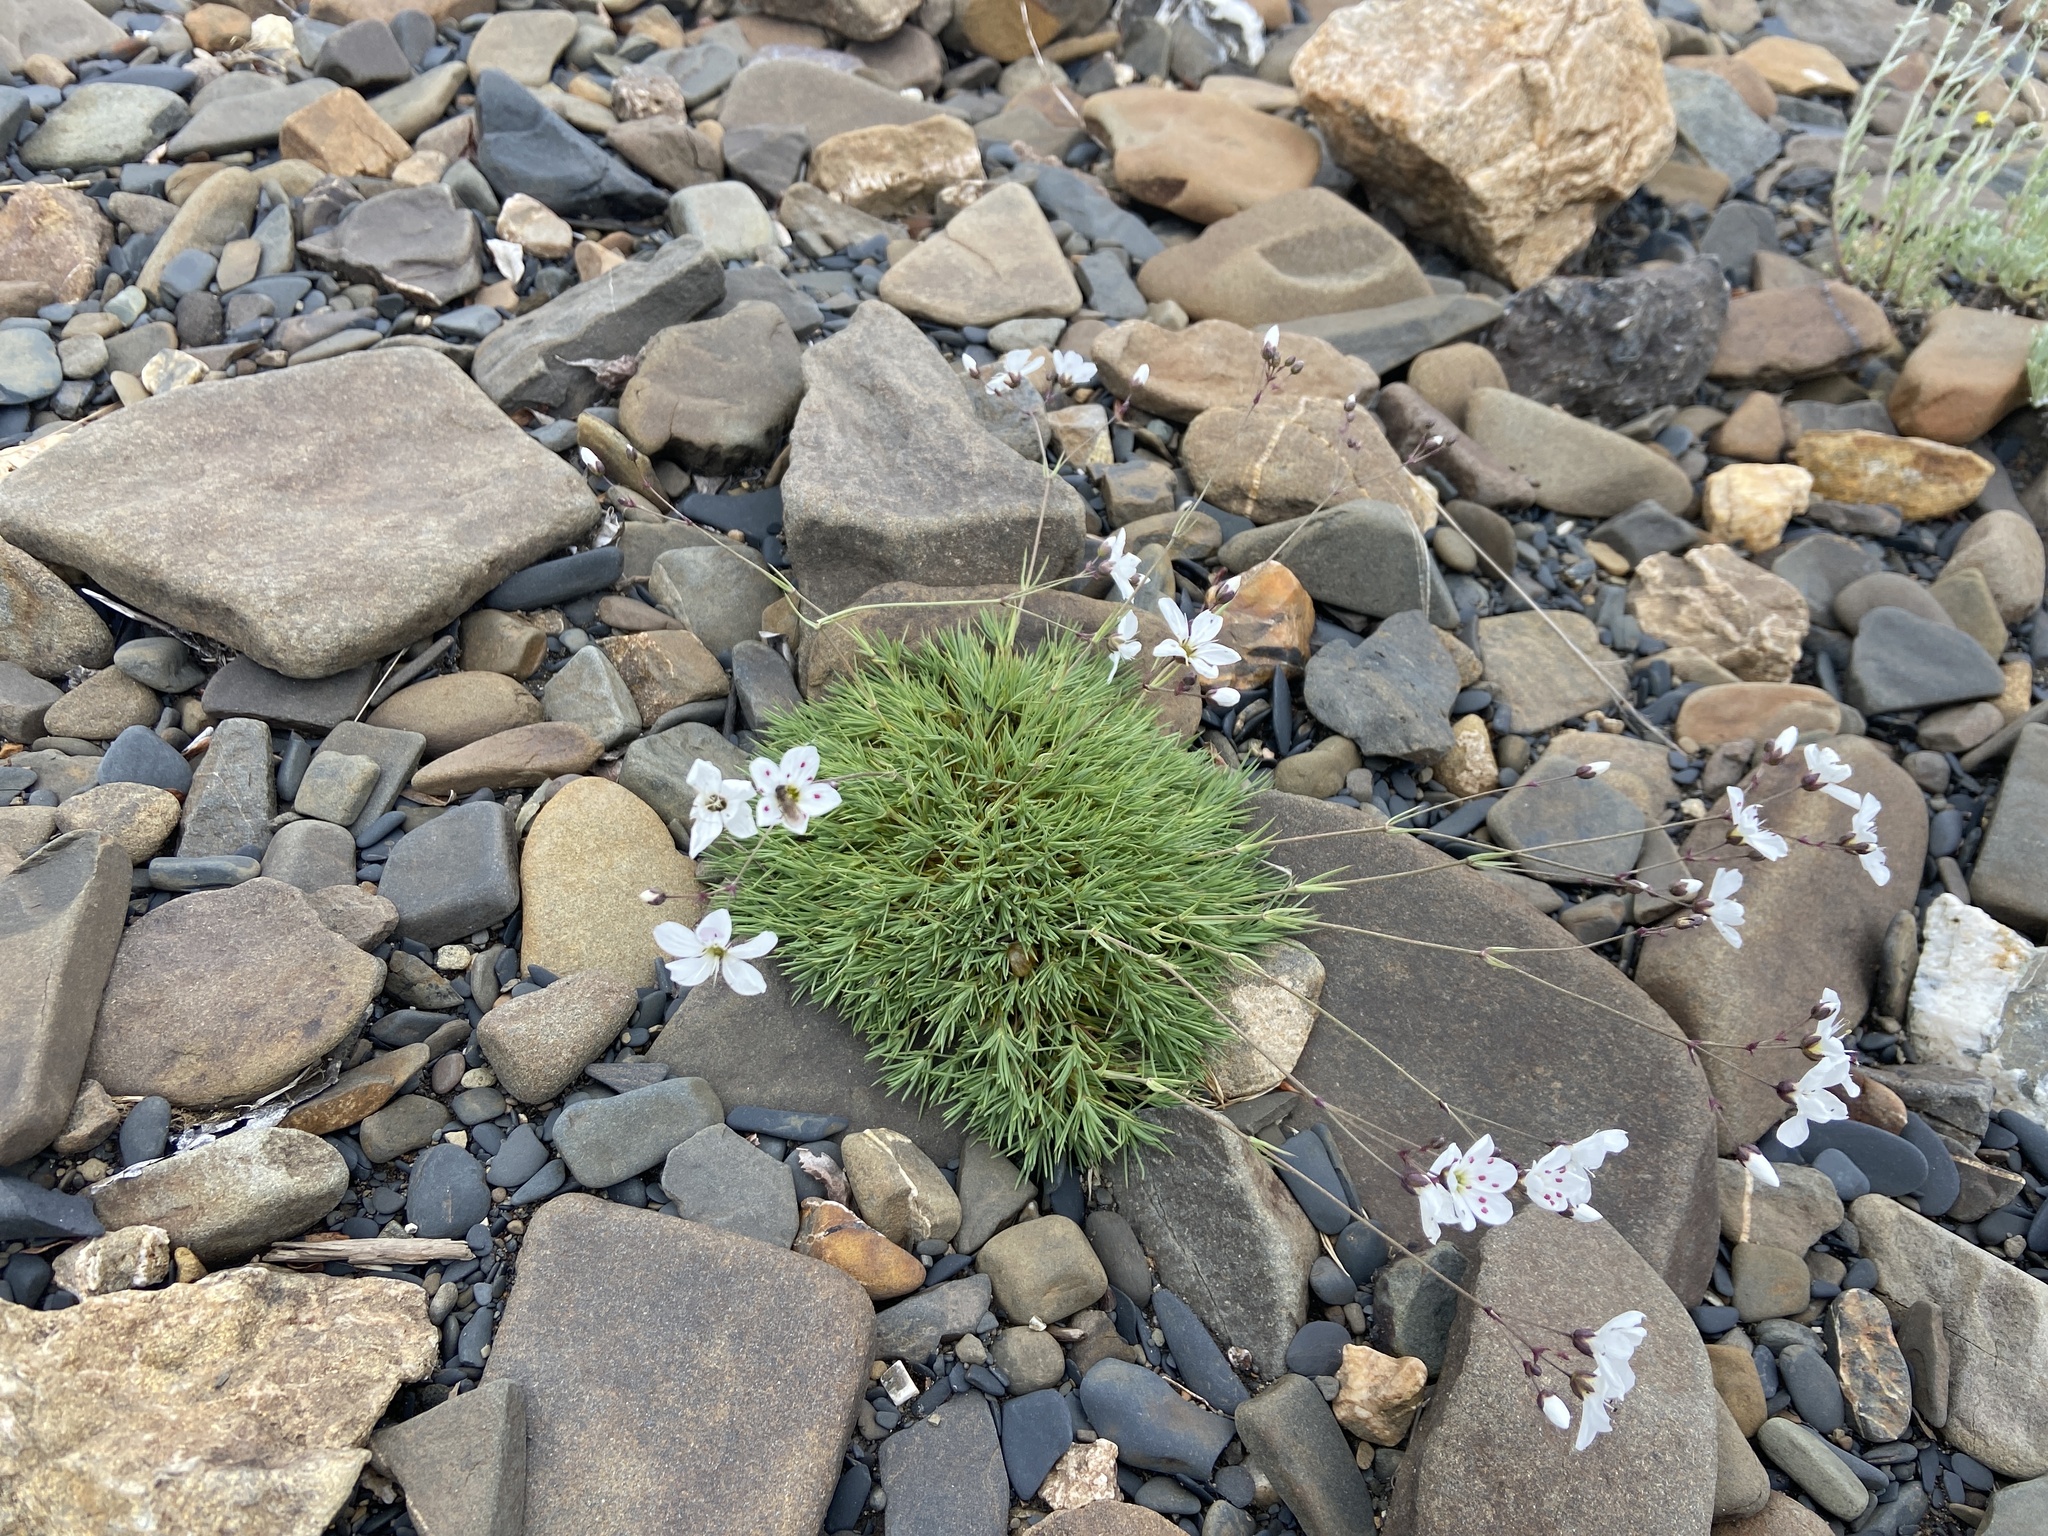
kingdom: Plantae
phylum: Tracheophyta
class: Magnoliopsida
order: Caryophyllales
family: Caryophyllaceae
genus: Eremogone
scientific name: Eremogone tschuktschorum
